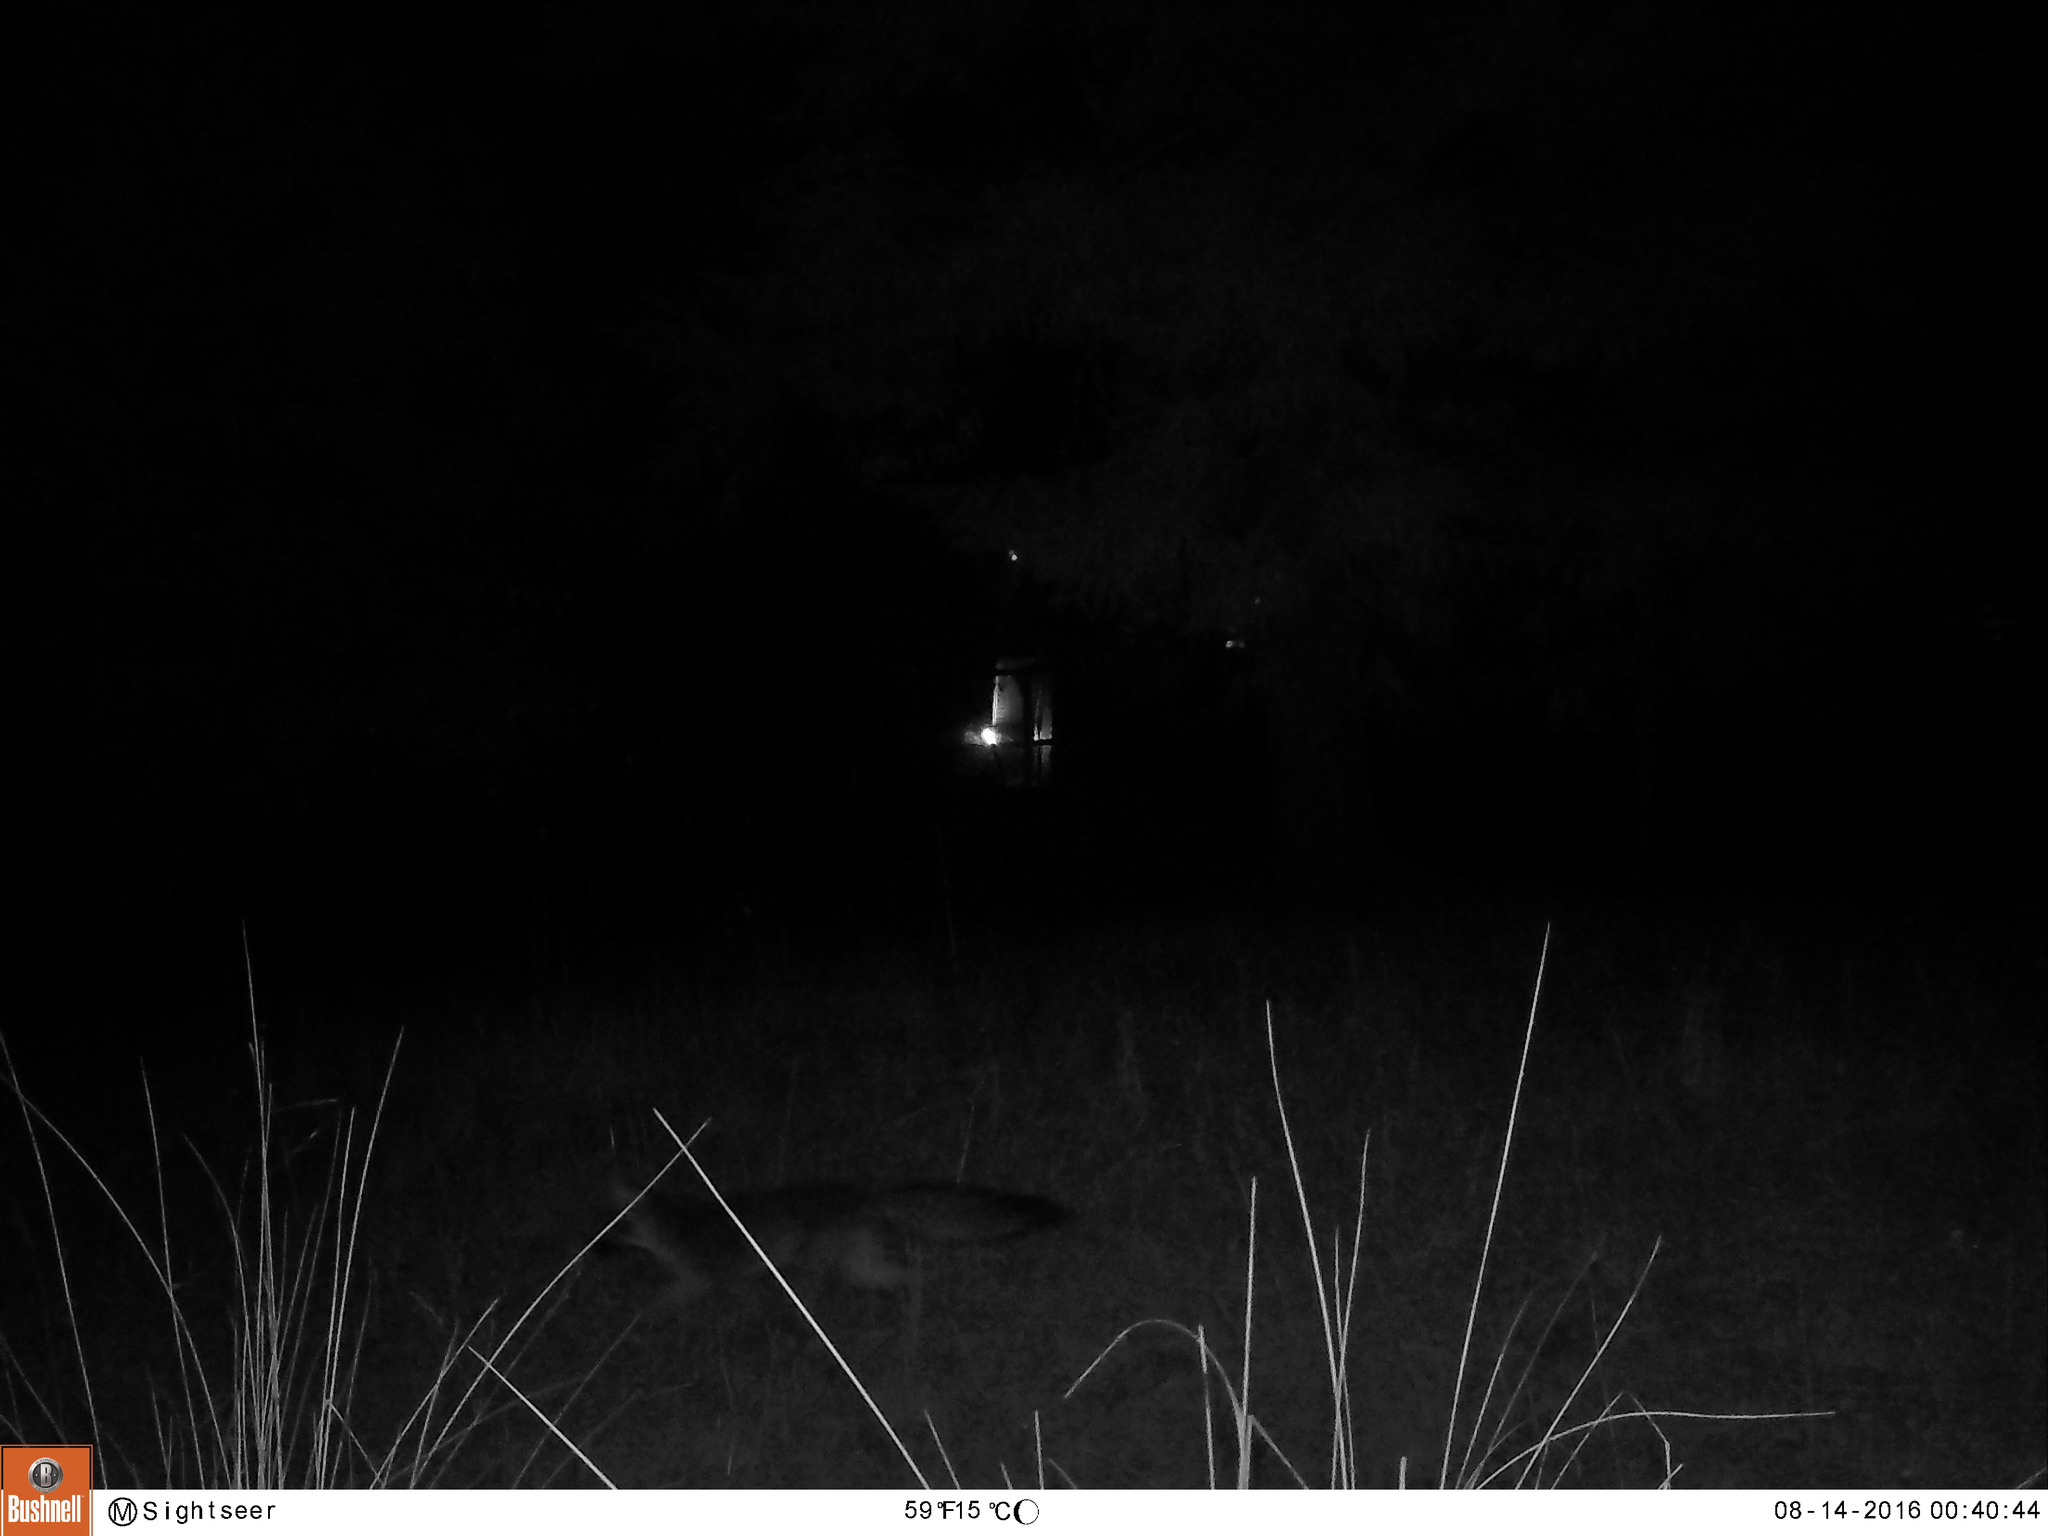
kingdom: Animalia
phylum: Chordata
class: Mammalia
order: Carnivora
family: Canidae
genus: Urocyon
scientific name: Urocyon cinereoargenteus
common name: Gray fox
